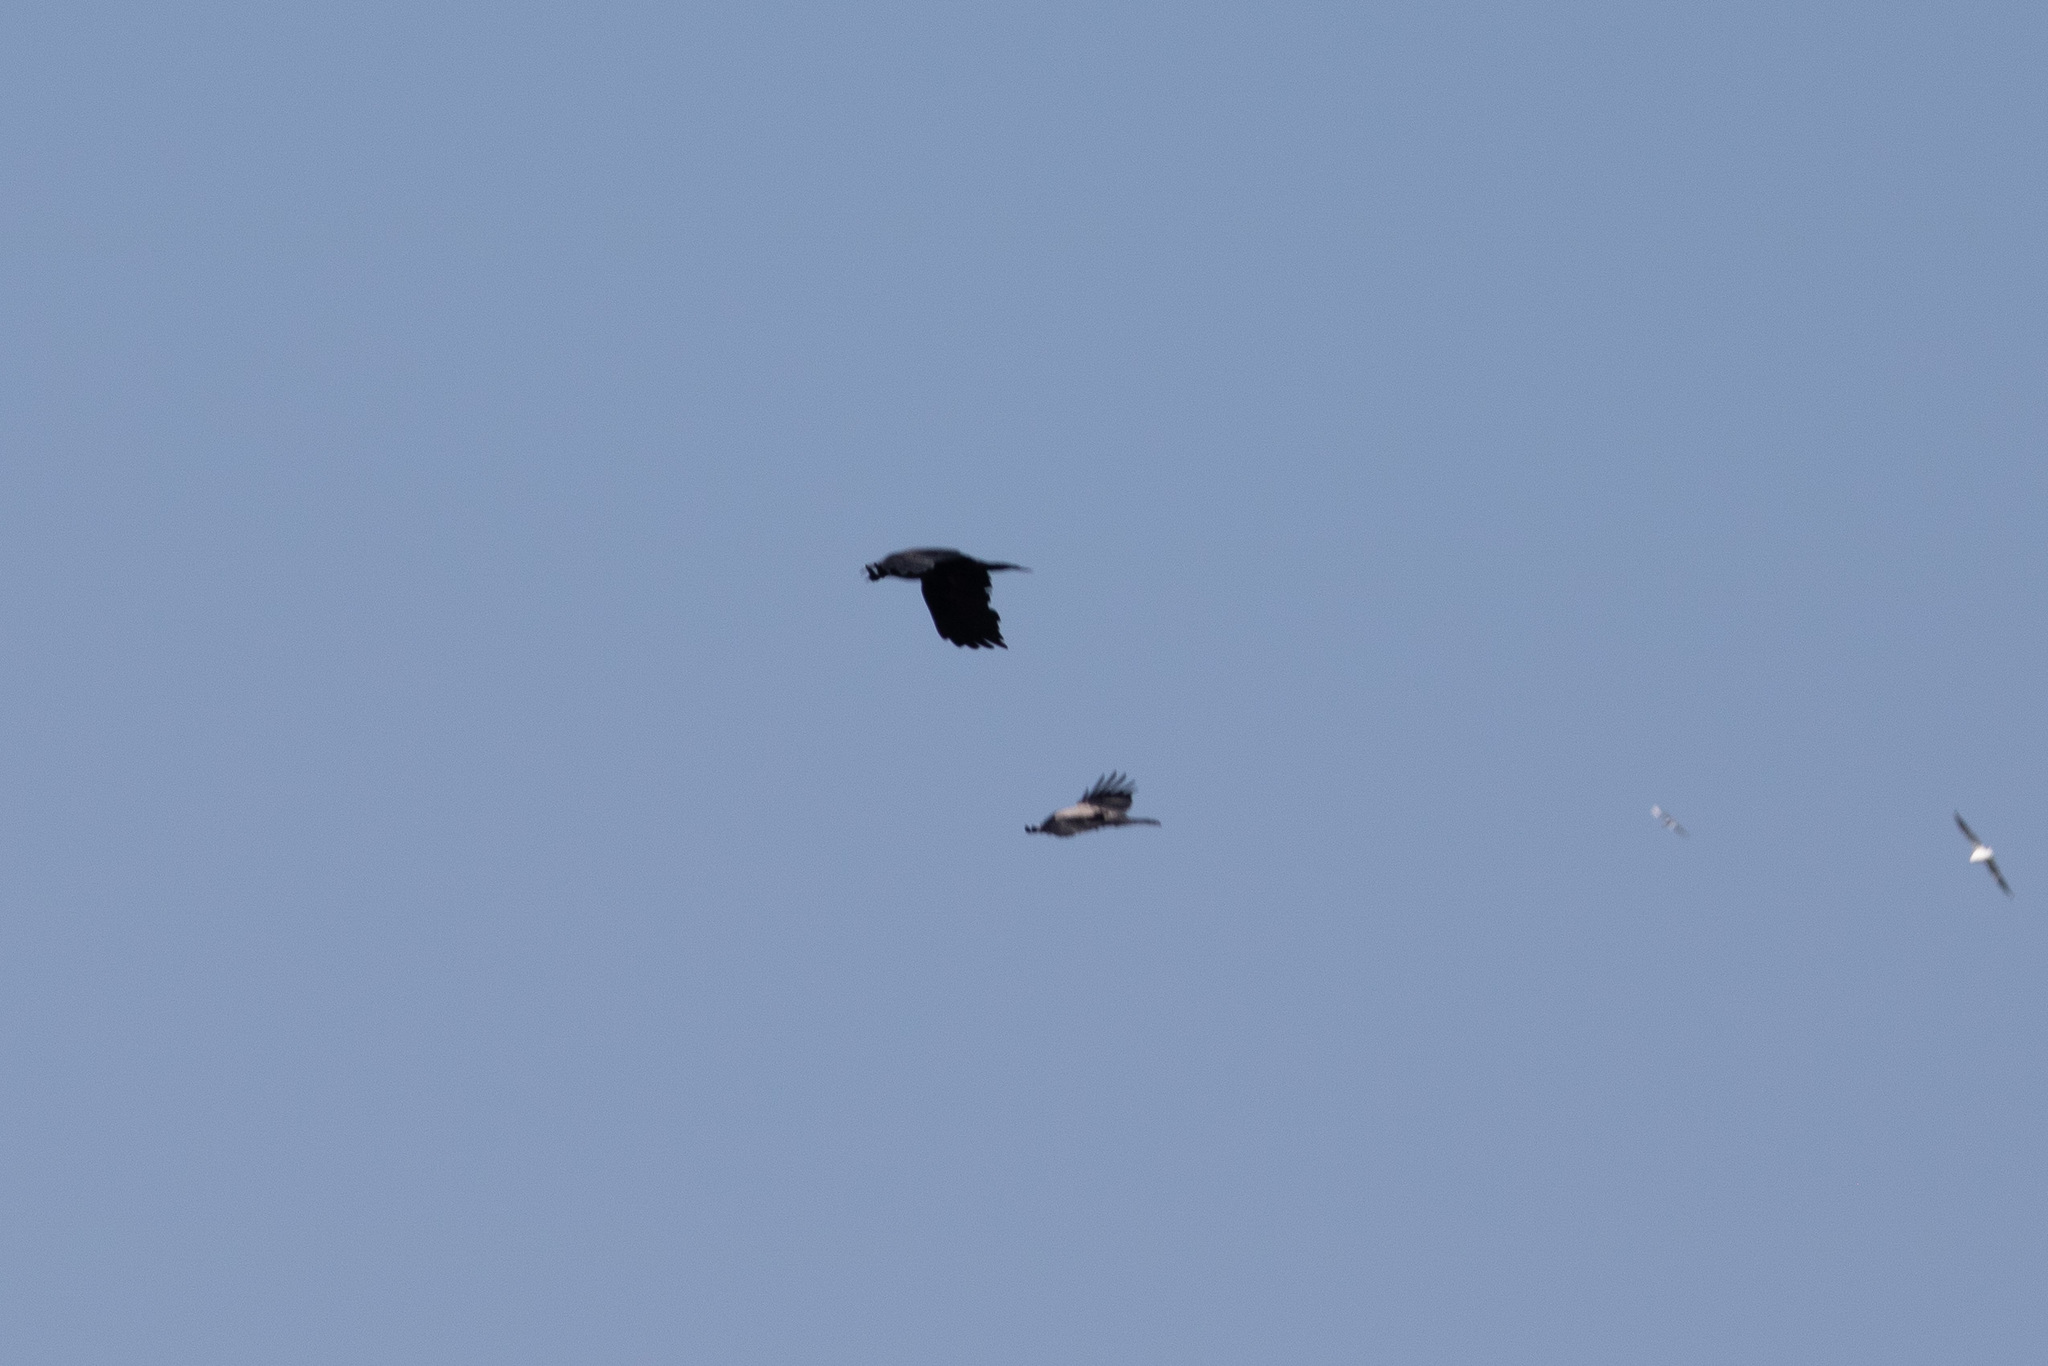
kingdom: Animalia
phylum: Chordata
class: Aves
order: Passeriformes
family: Corvidae
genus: Corvus
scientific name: Corvus corax
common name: Common raven
